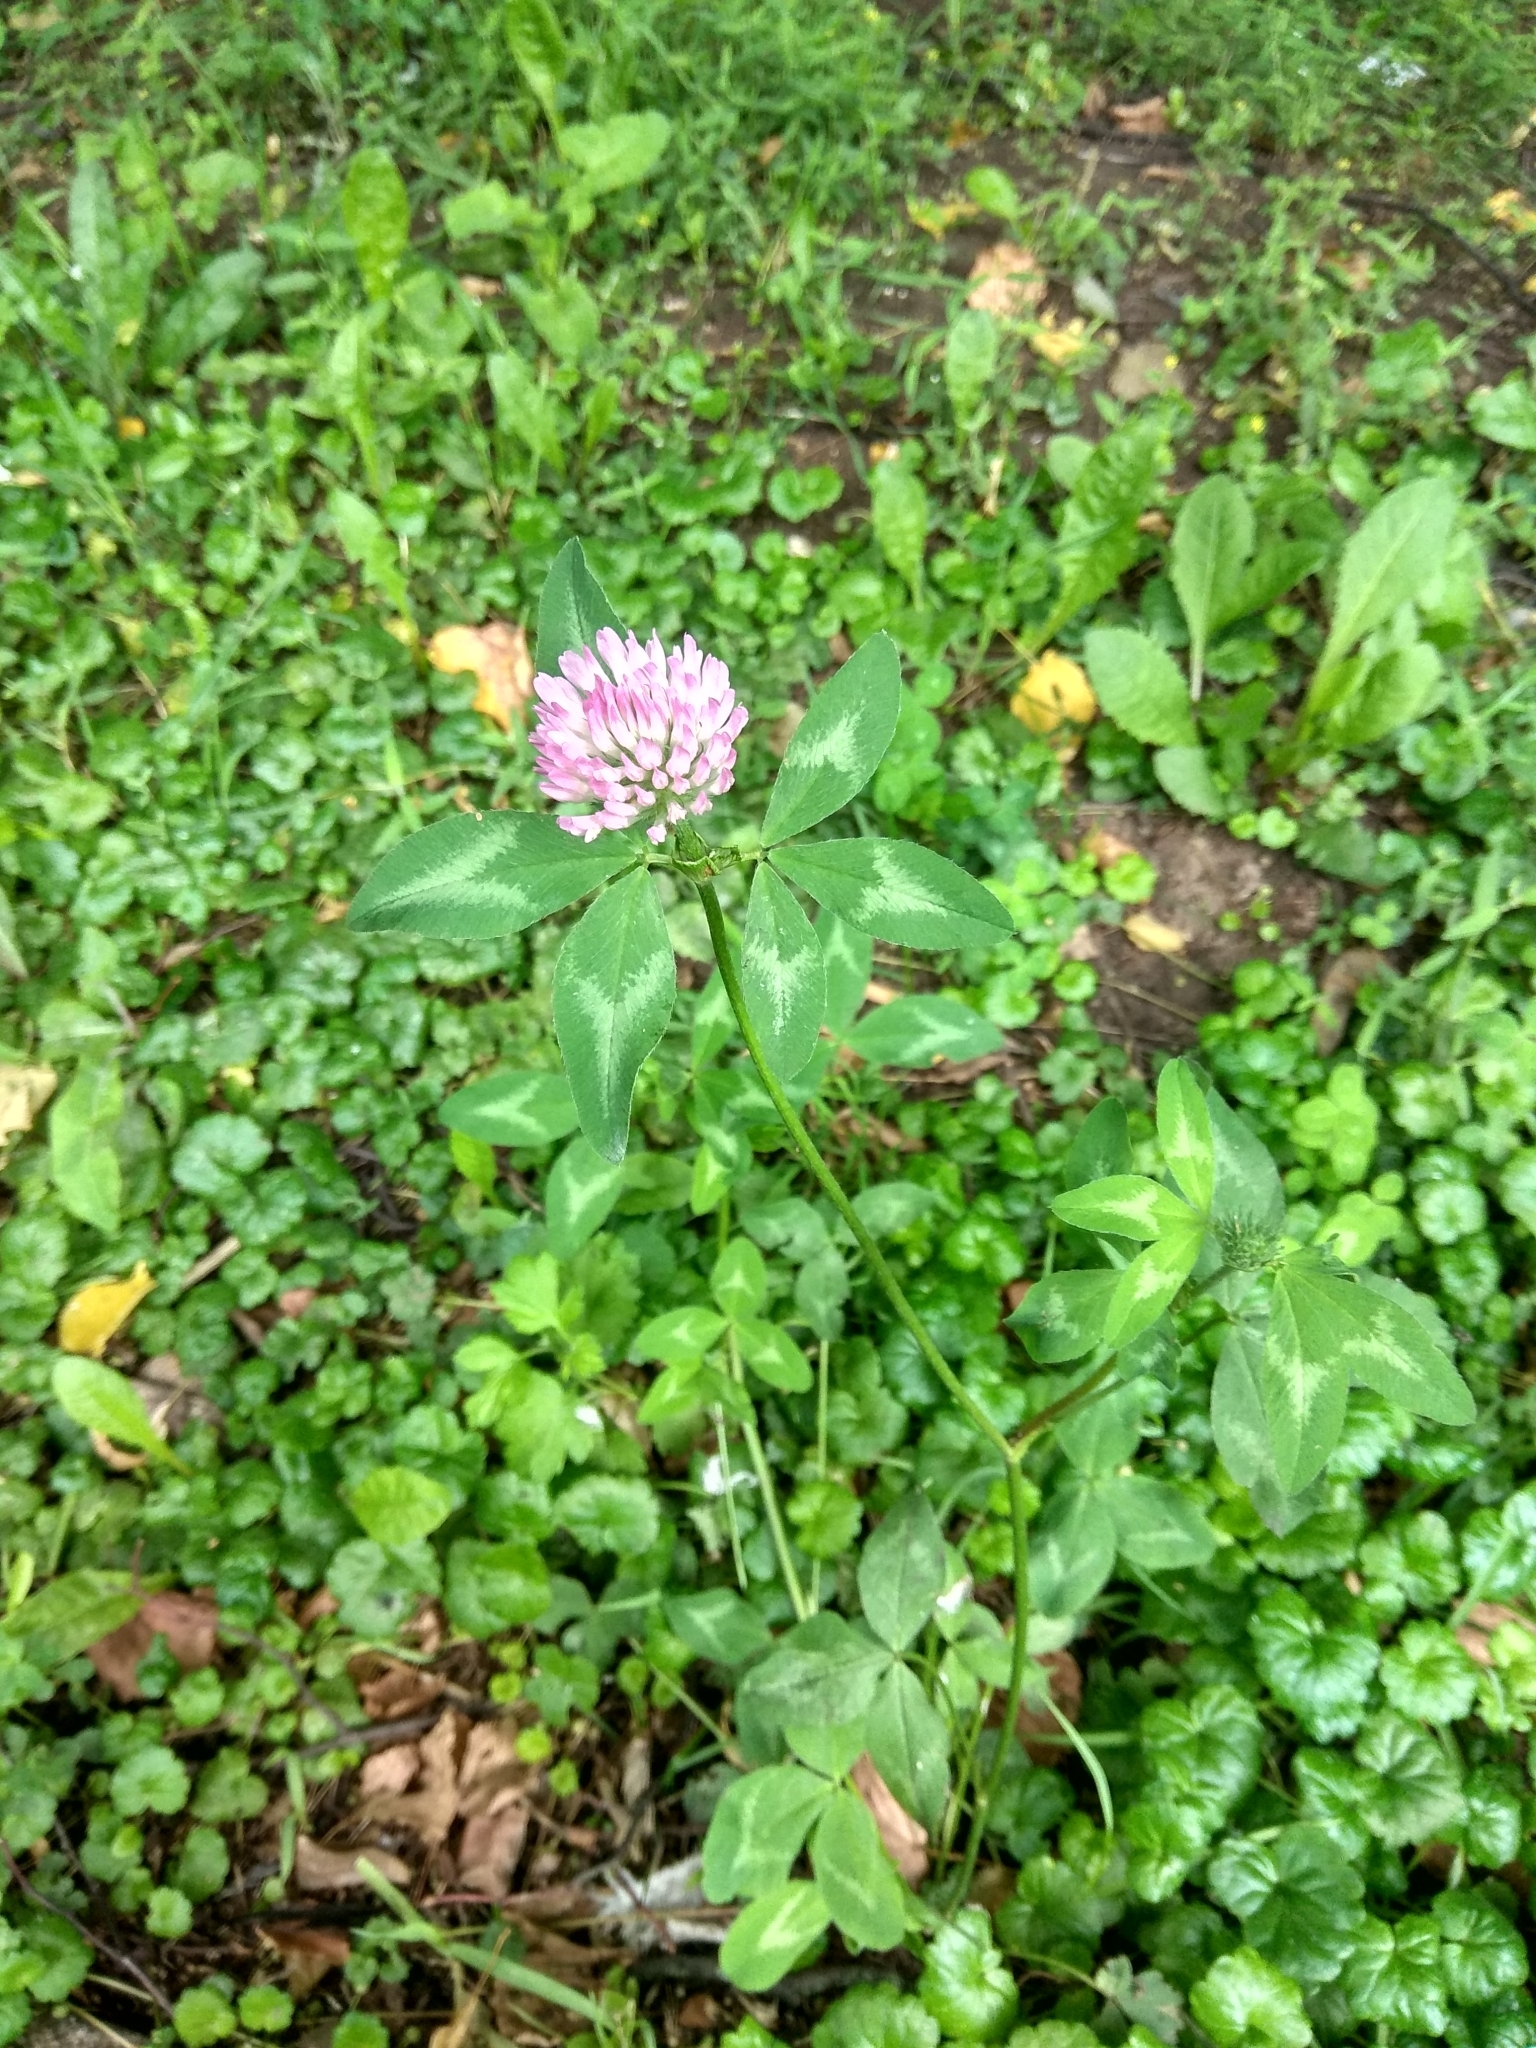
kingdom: Plantae
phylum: Tracheophyta
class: Magnoliopsida
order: Fabales
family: Fabaceae
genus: Trifolium
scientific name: Trifolium pratense
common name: Red clover
